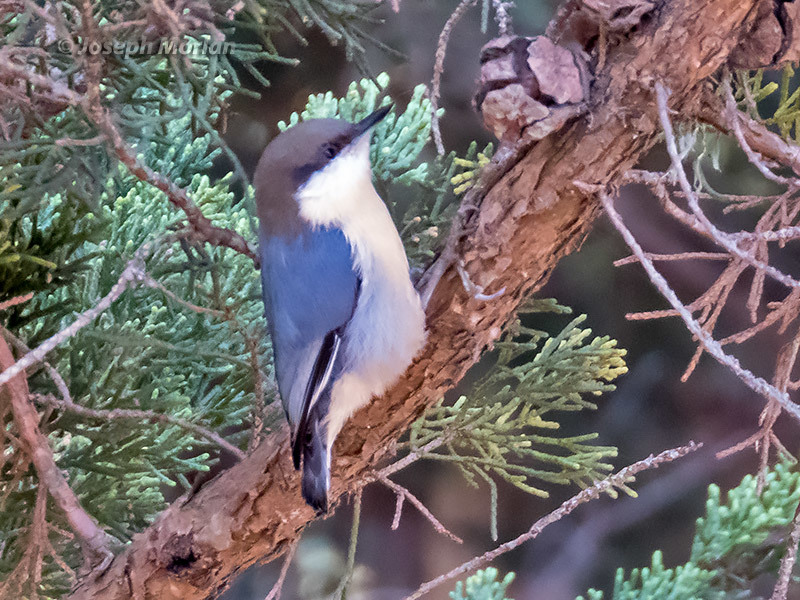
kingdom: Animalia
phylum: Chordata
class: Aves
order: Passeriformes
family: Sittidae
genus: Sitta
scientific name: Sitta pygmaea
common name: Pygmy nuthatch
